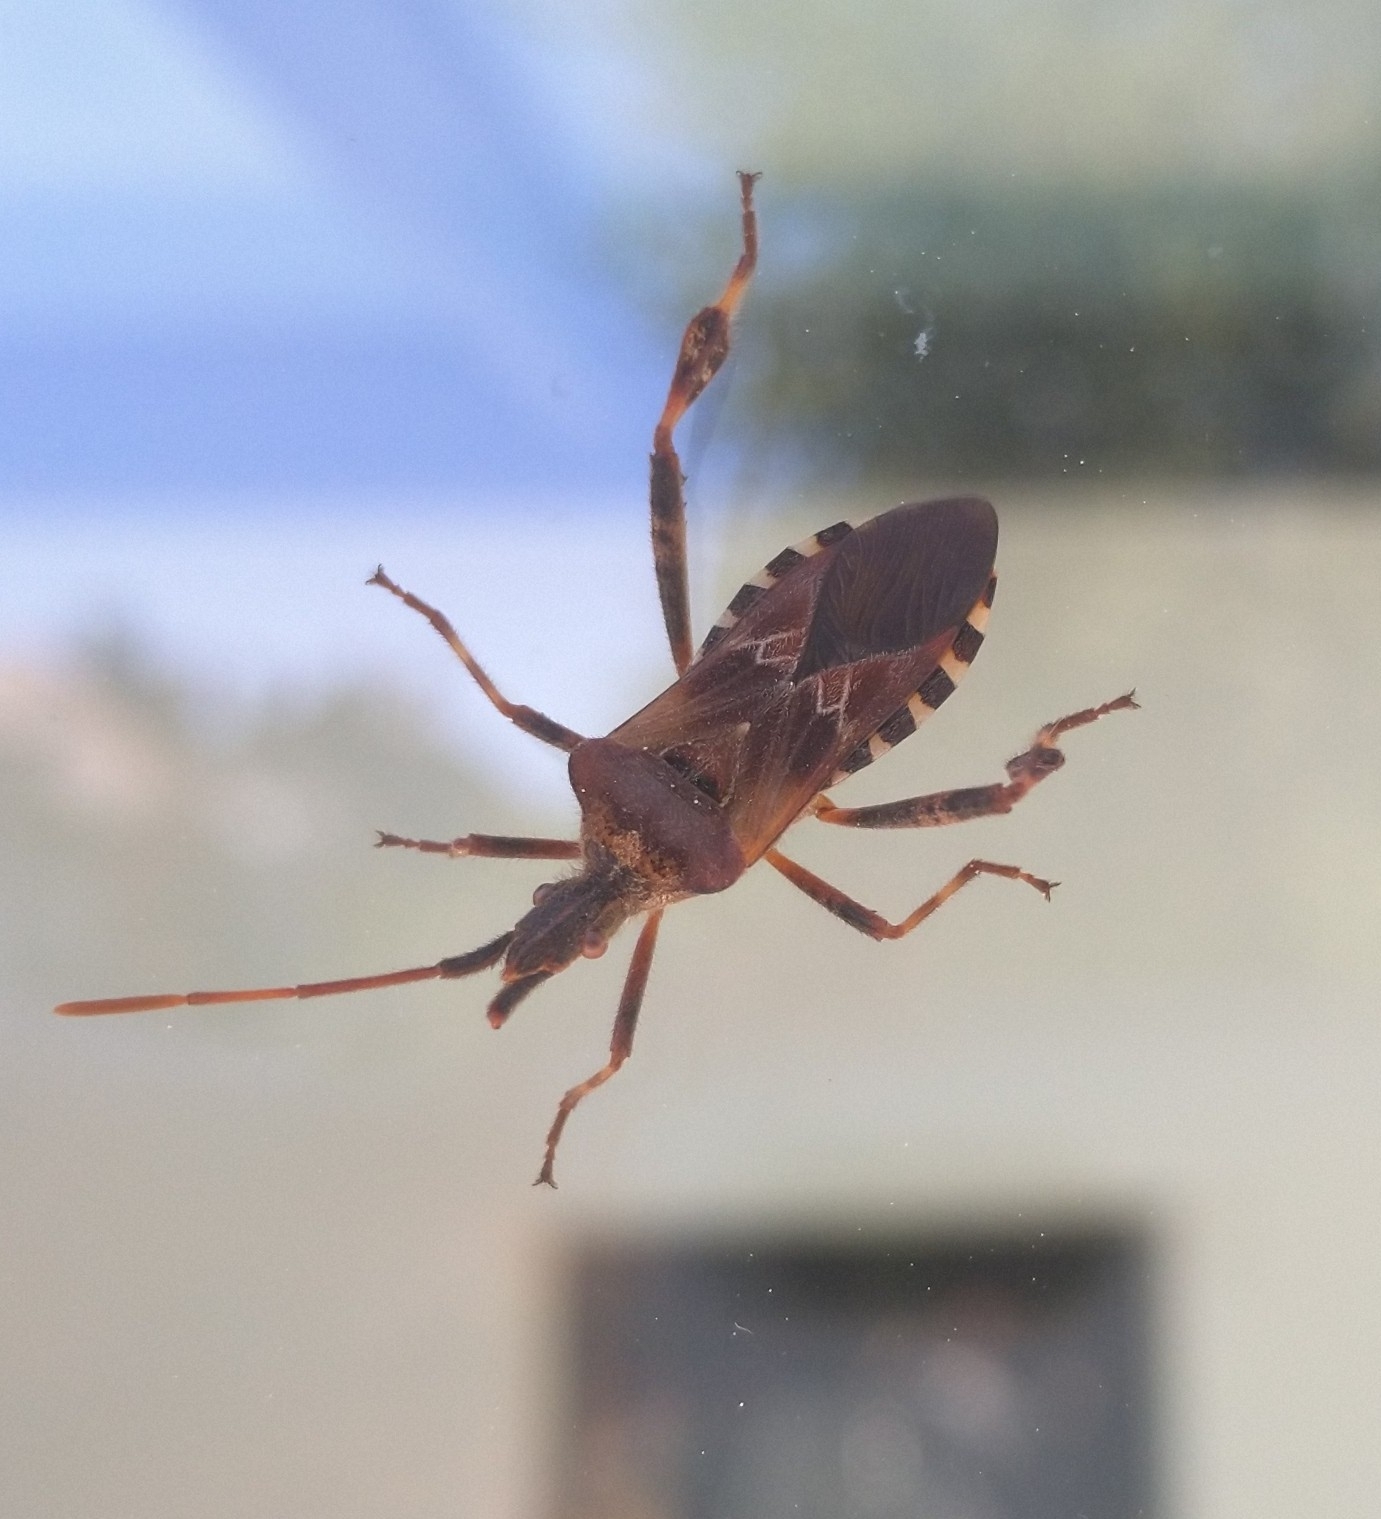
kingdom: Animalia
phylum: Arthropoda
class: Insecta
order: Hemiptera
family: Coreidae
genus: Leptoglossus
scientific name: Leptoglossus occidentalis
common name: Western conifer-seed bug
